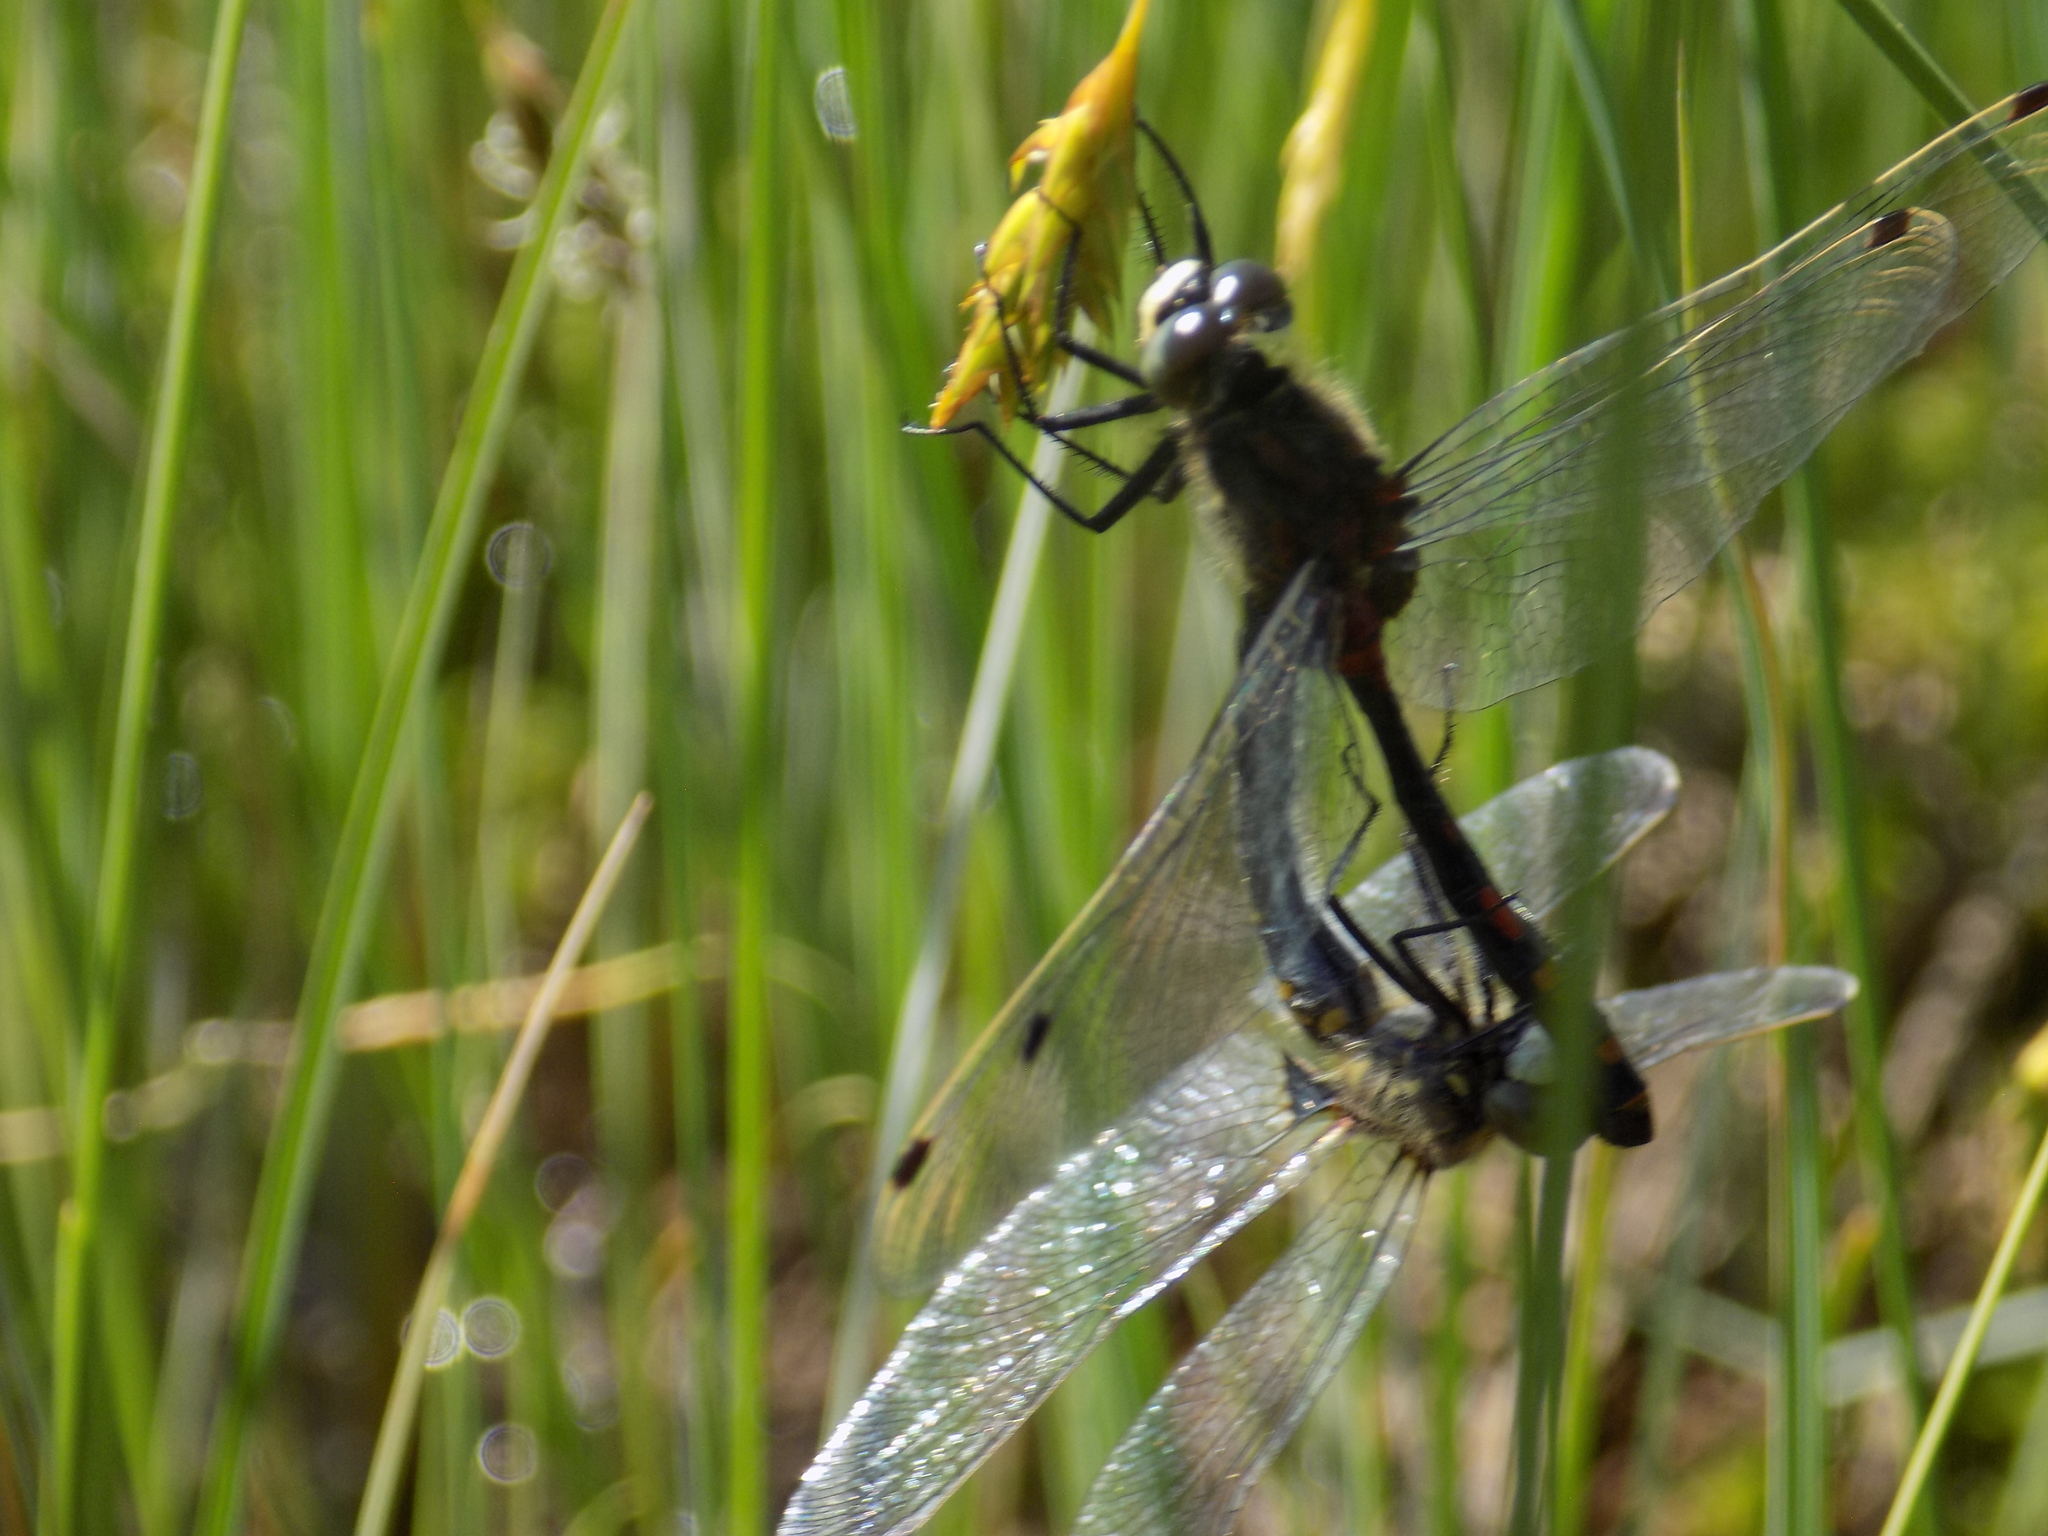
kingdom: Animalia
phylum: Arthropoda
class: Insecta
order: Odonata
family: Libellulidae
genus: Leucorrhinia
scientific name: Leucorrhinia orientalis
